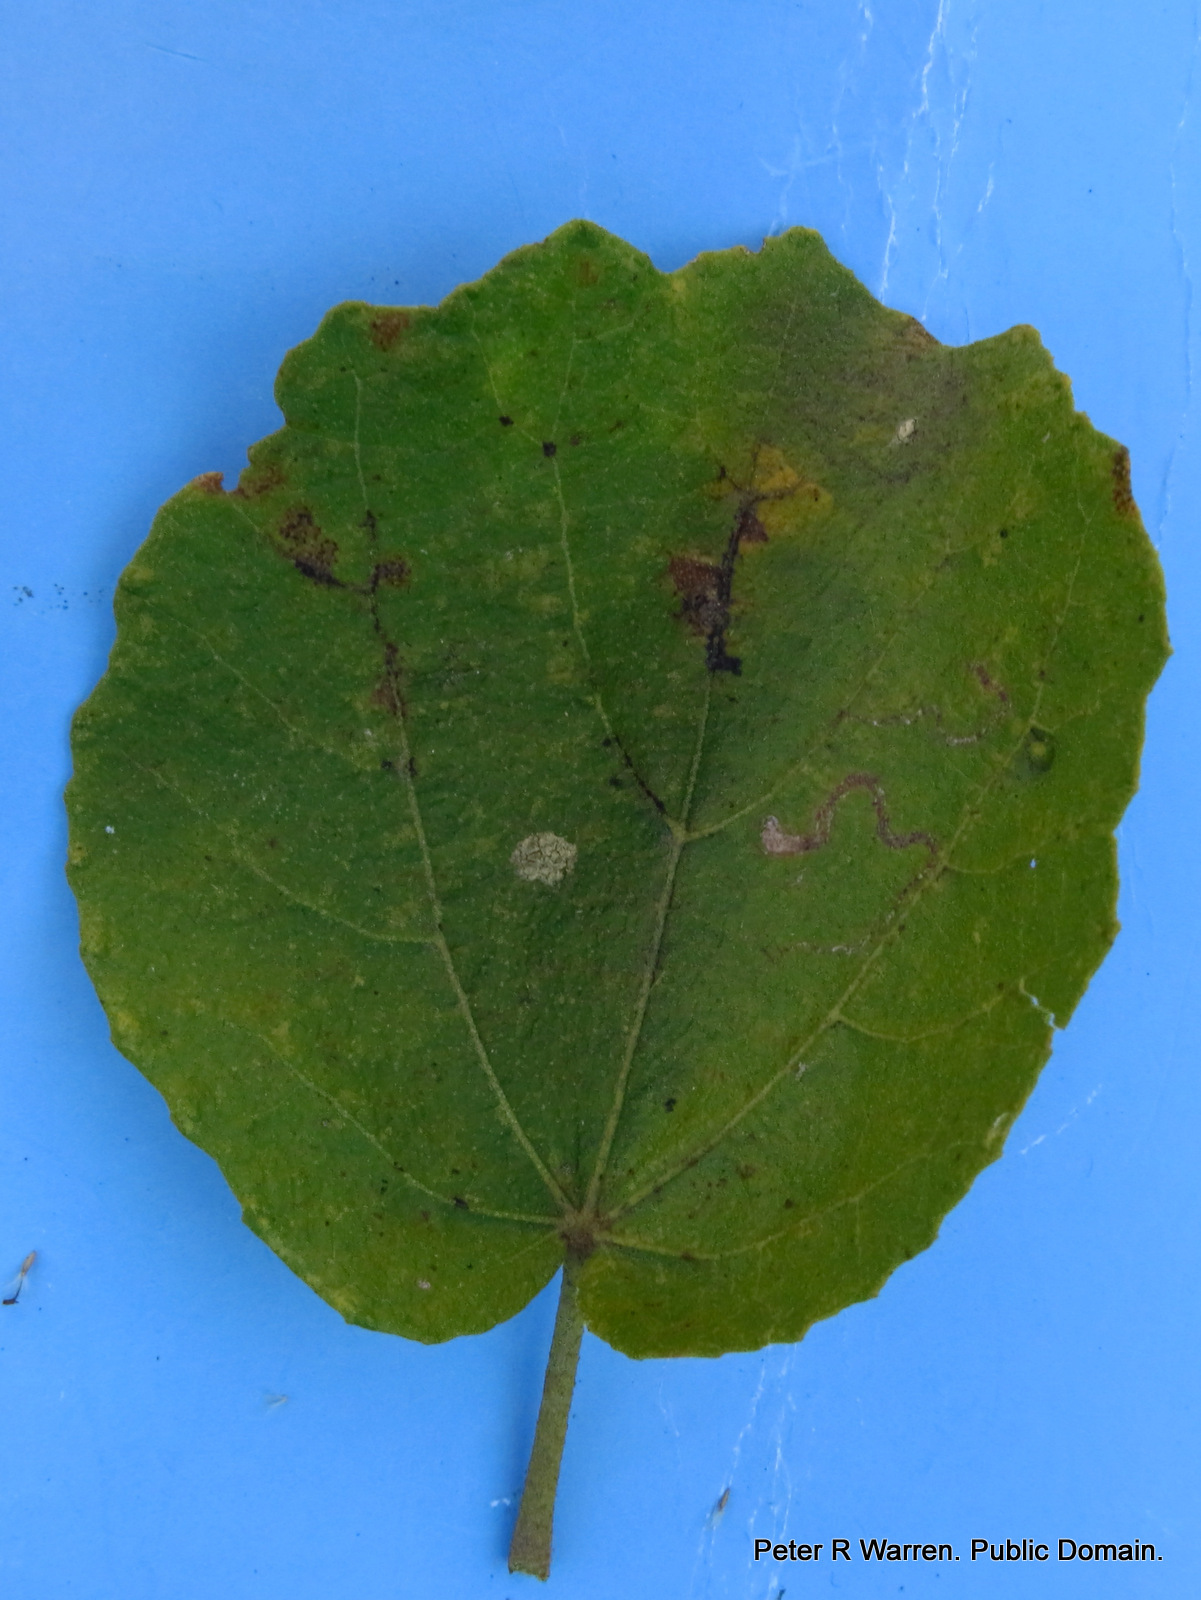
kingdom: Plantae
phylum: Tracheophyta
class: Magnoliopsida
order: Malvales
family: Malvaceae
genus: Dombeya
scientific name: Dombeya rotundifolia
